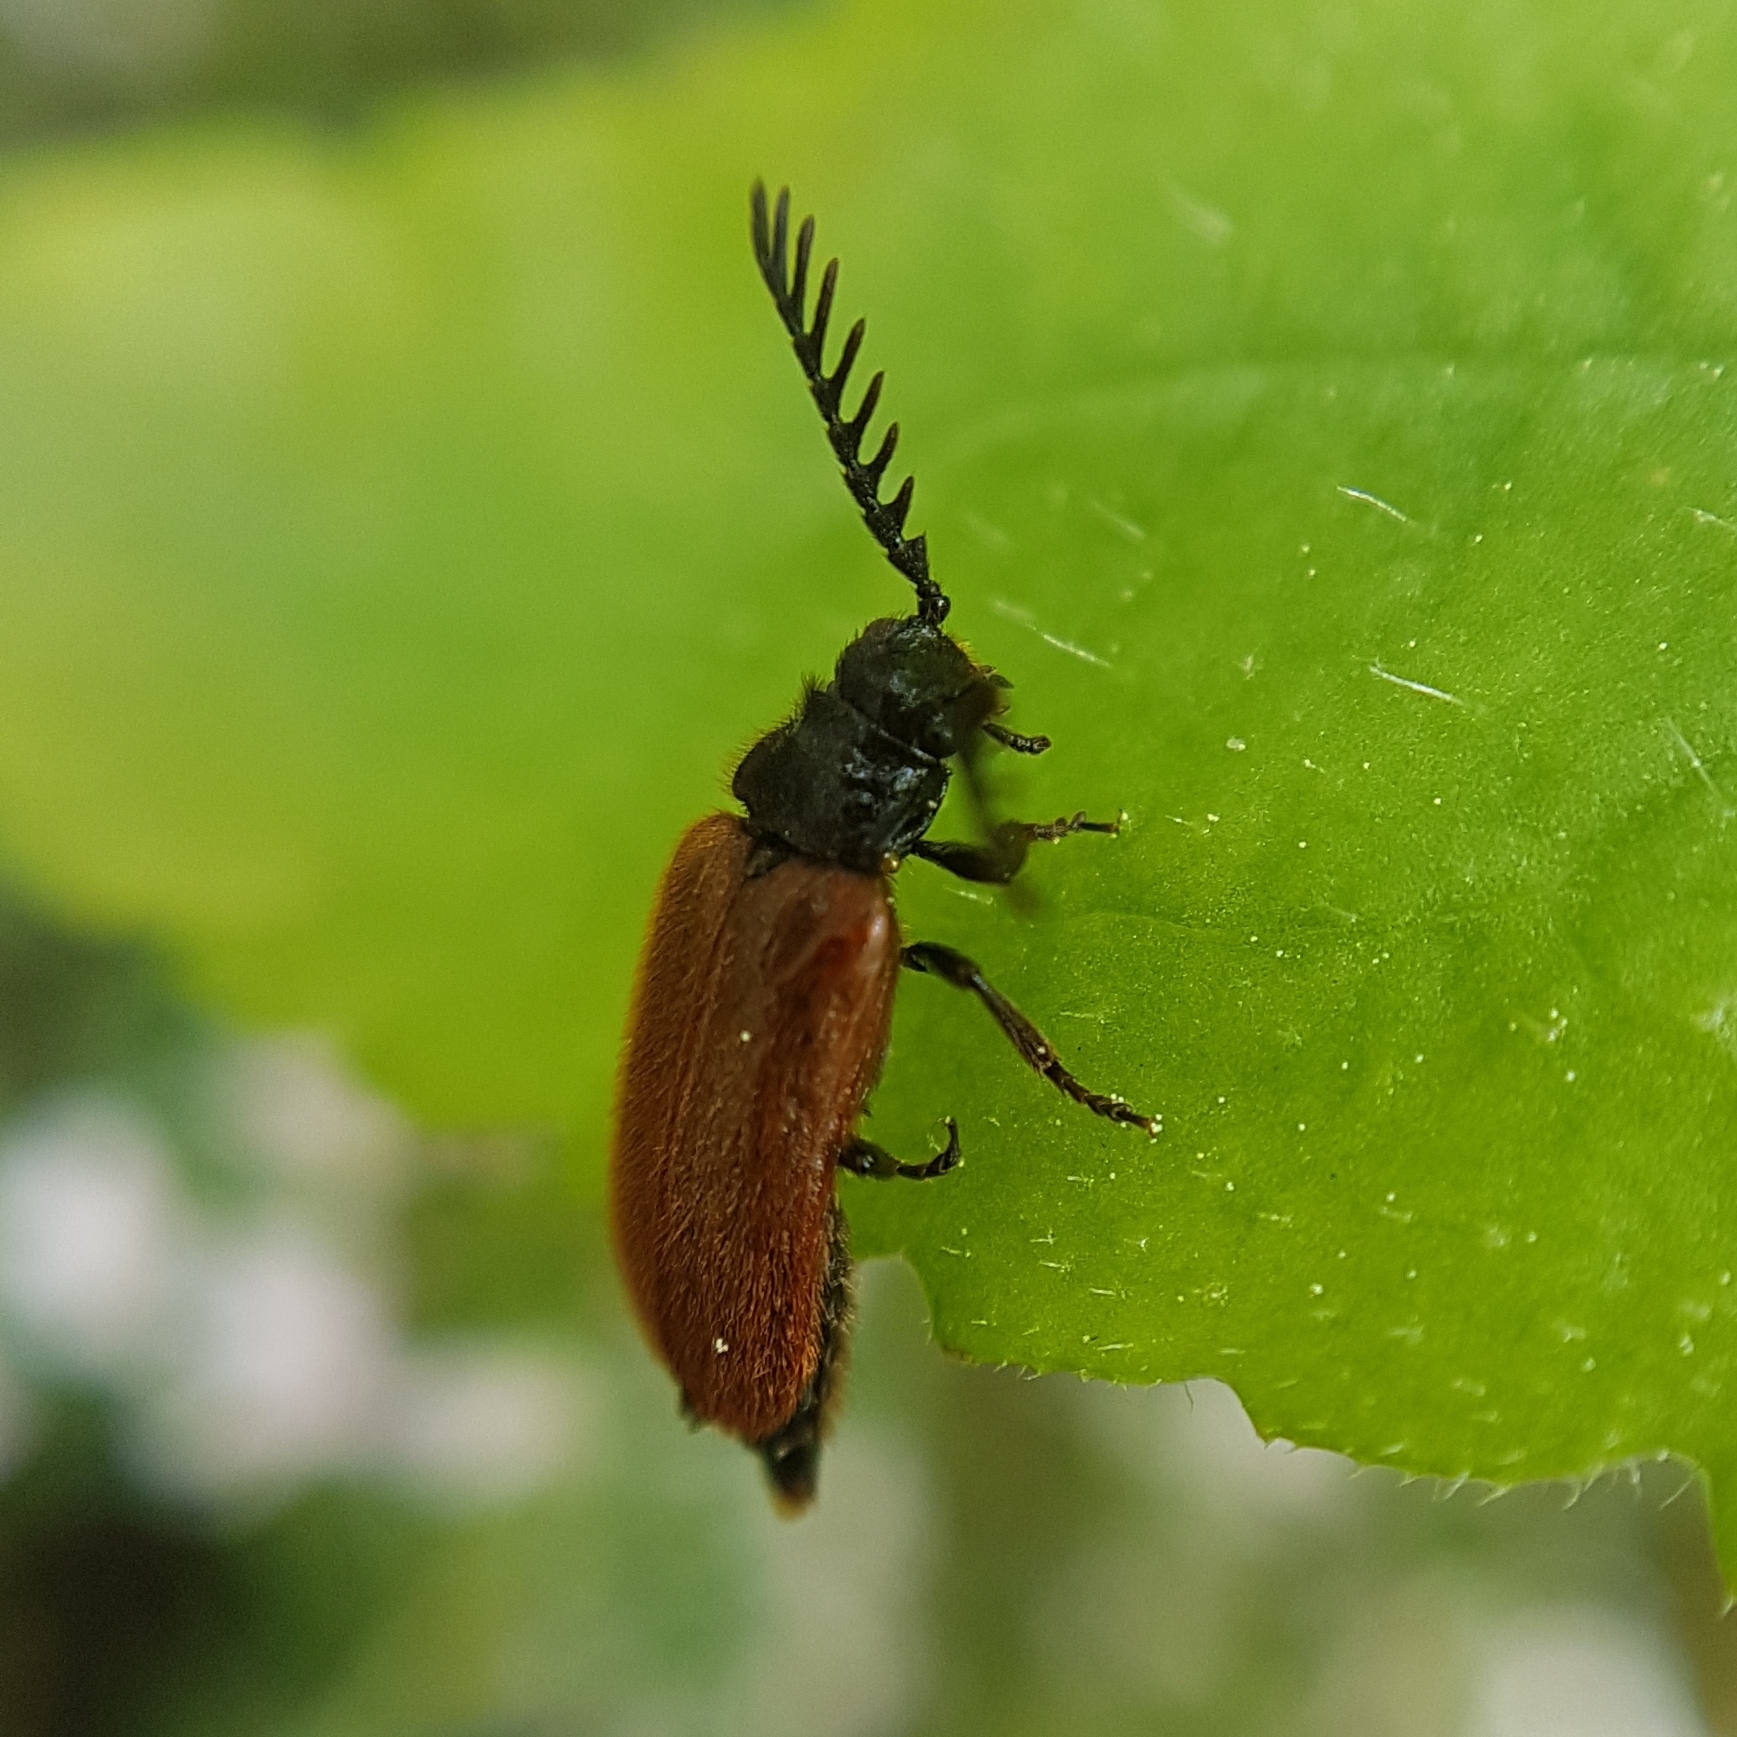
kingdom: Animalia
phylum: Arthropoda
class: Insecta
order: Coleoptera
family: Drilidae
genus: Drilus
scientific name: Drilus flavescens
